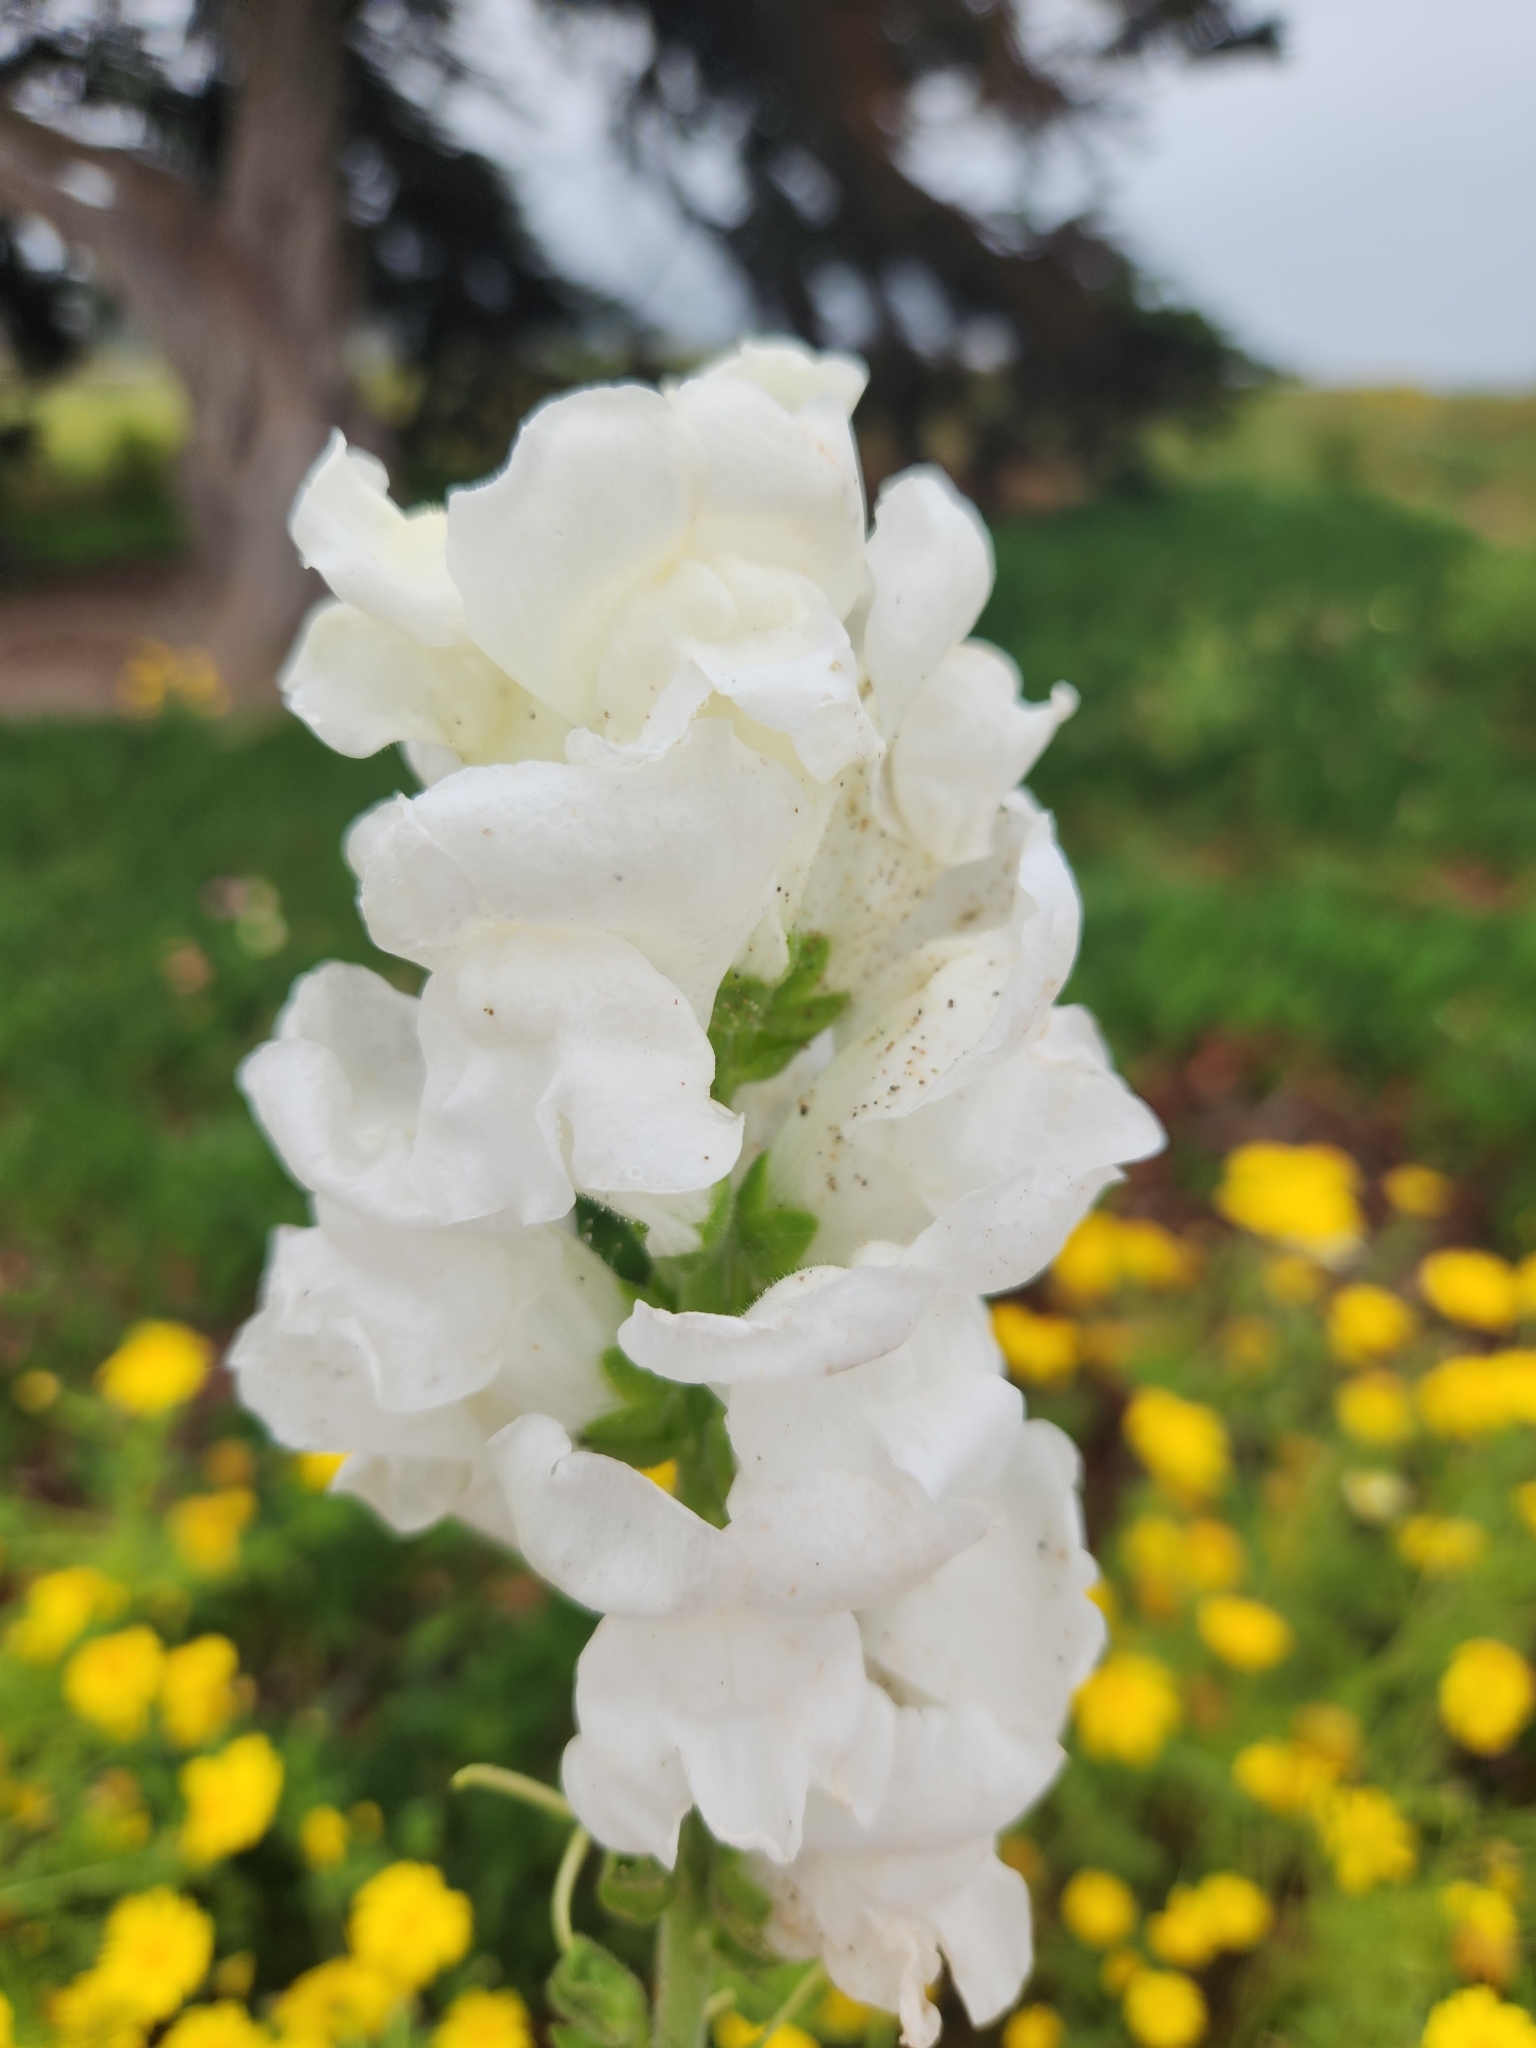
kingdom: Plantae
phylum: Tracheophyta
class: Magnoliopsida
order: Lamiales
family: Plantaginaceae
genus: Antirrhinum
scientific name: Antirrhinum majus
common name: Snapdragon
